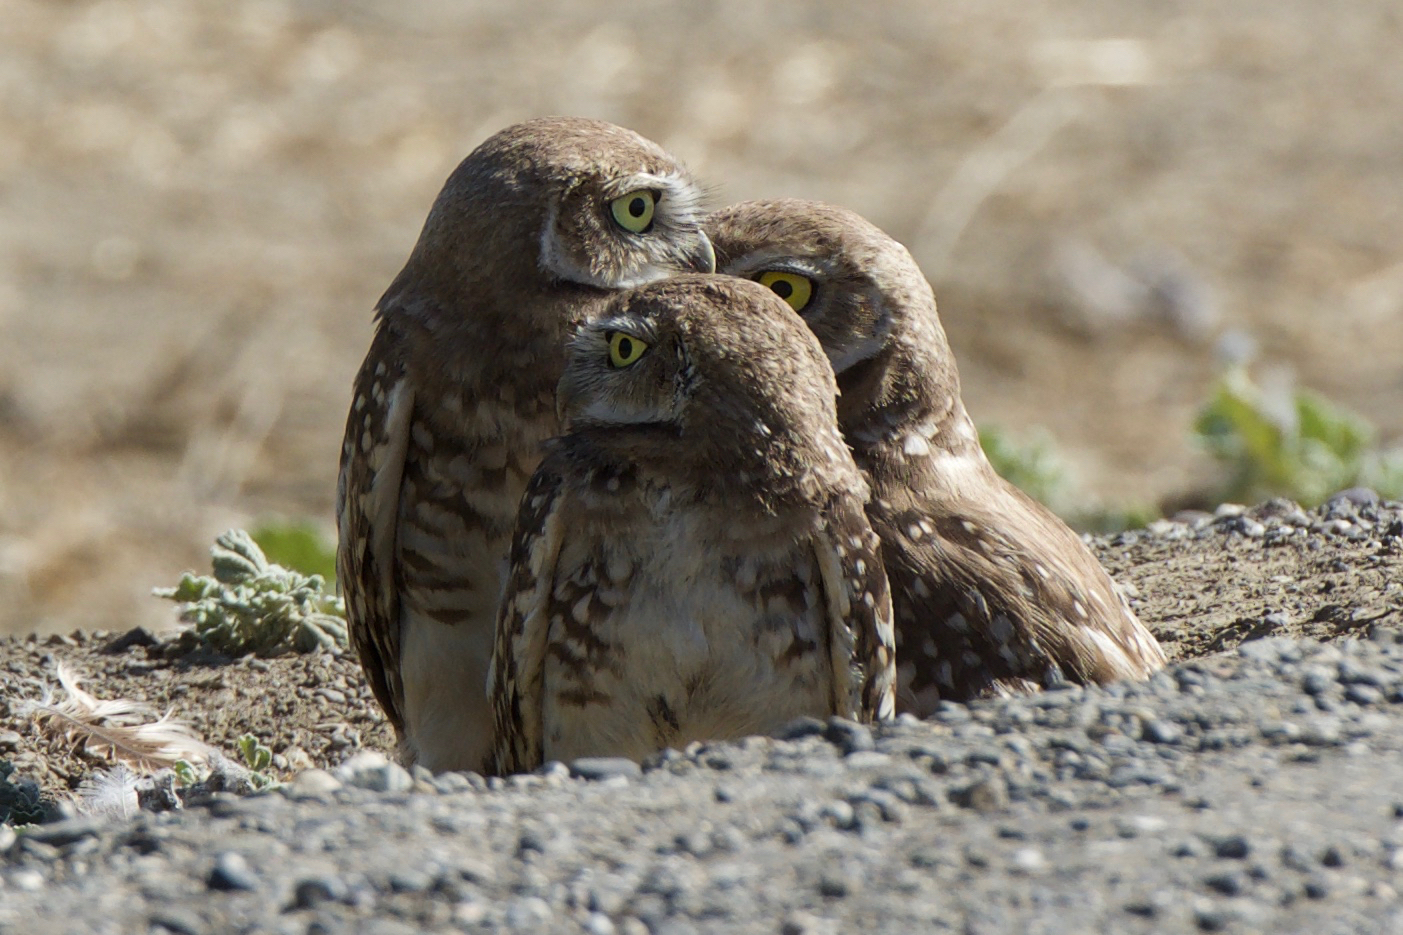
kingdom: Animalia
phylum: Chordata
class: Aves
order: Strigiformes
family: Strigidae
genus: Athene
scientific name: Athene cunicularia
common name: Burrowing owl
